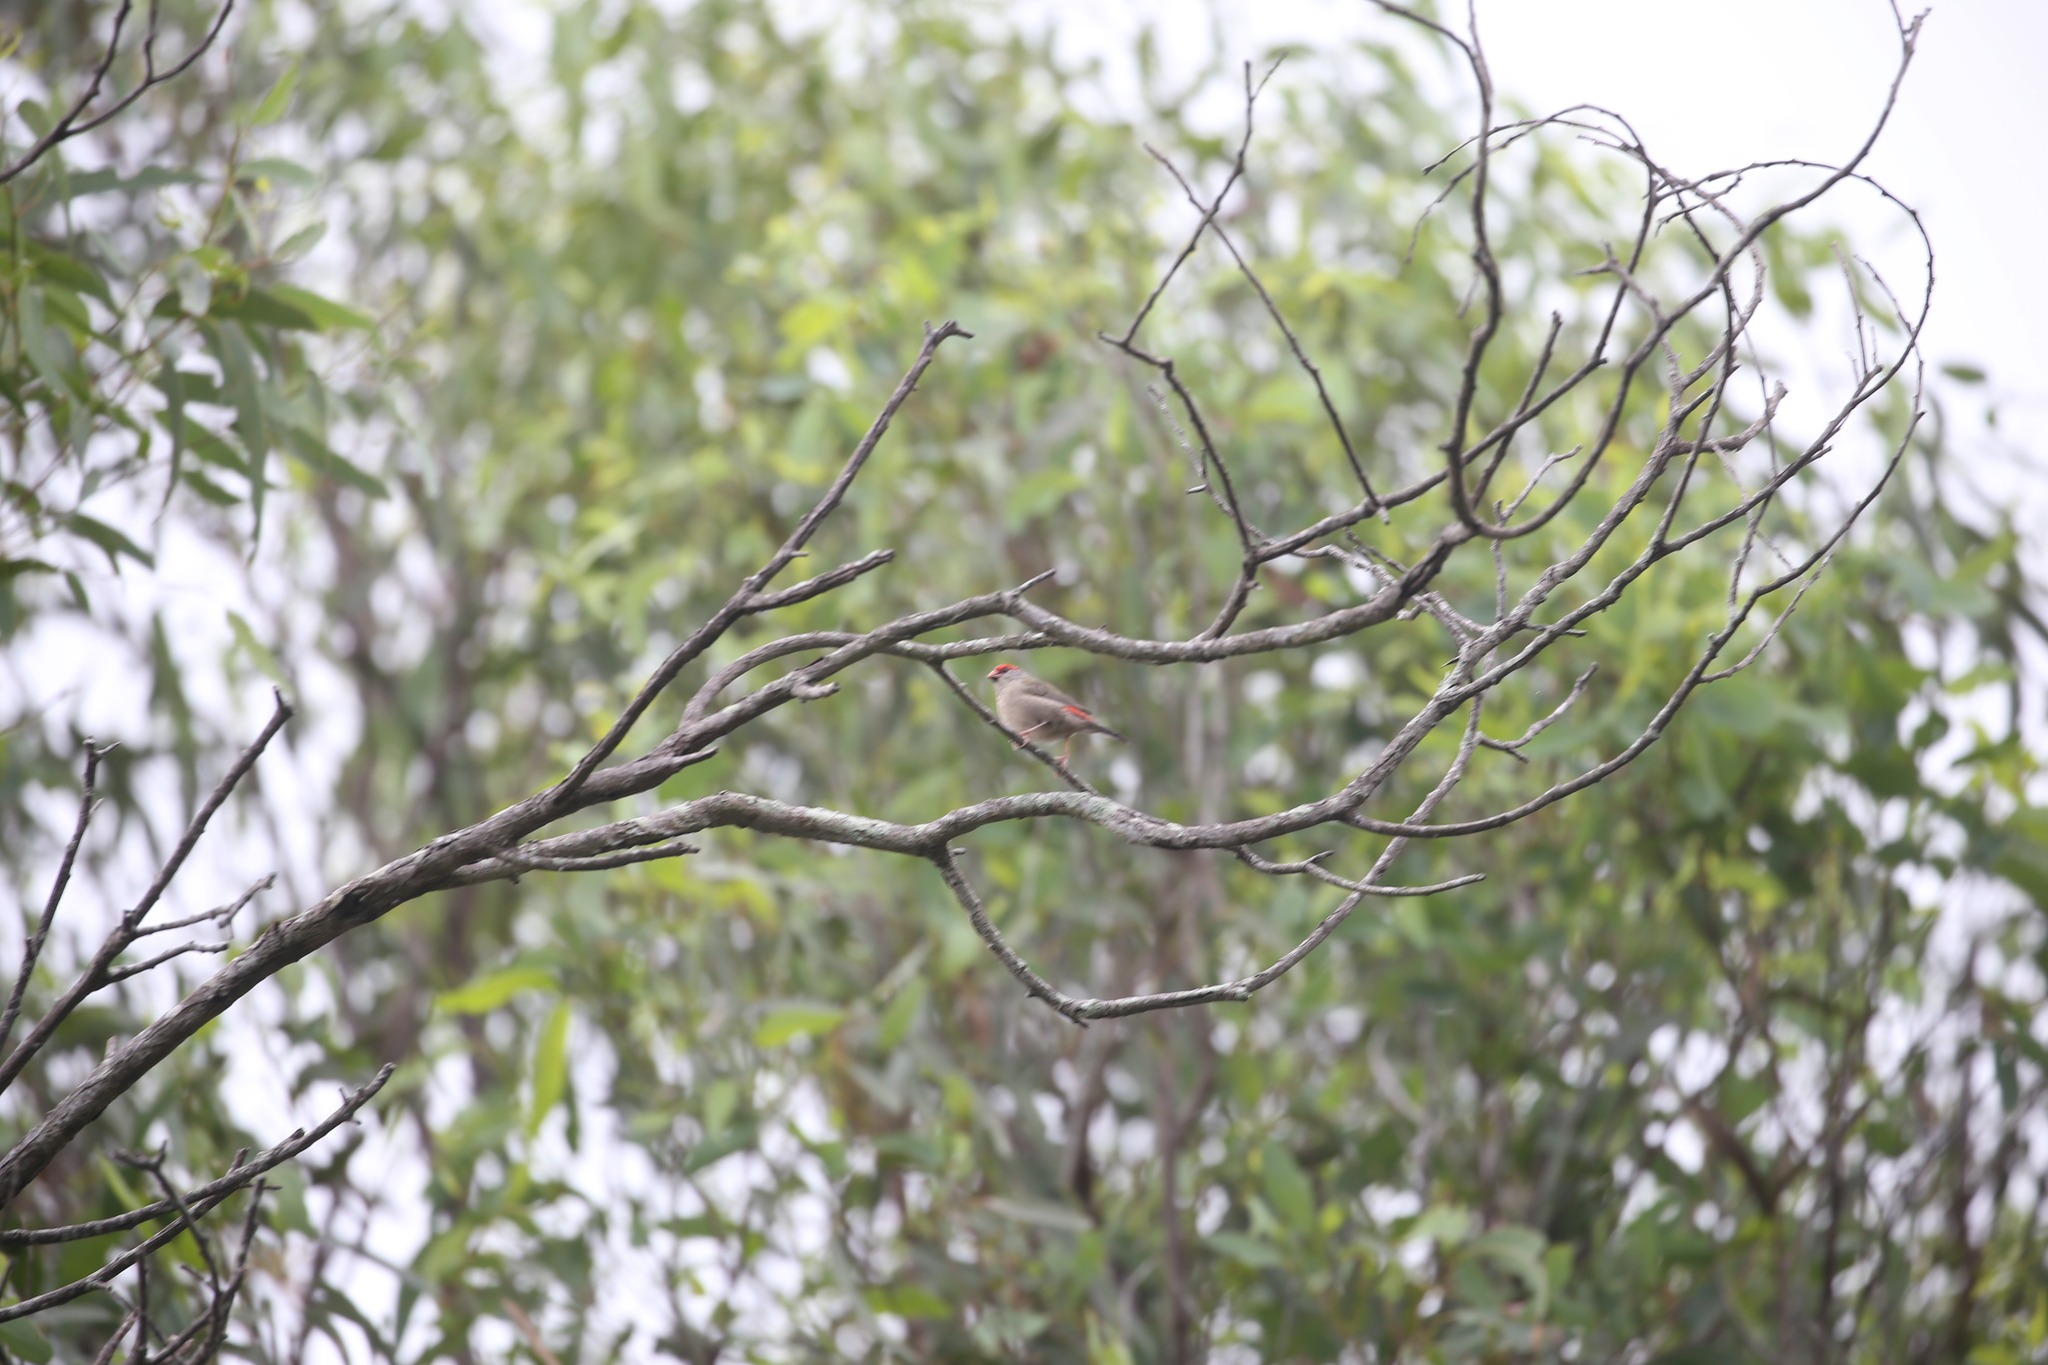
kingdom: Animalia
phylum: Chordata
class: Aves
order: Passeriformes
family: Estrildidae
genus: Neochmia
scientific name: Neochmia temporalis
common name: Red-browed finch
